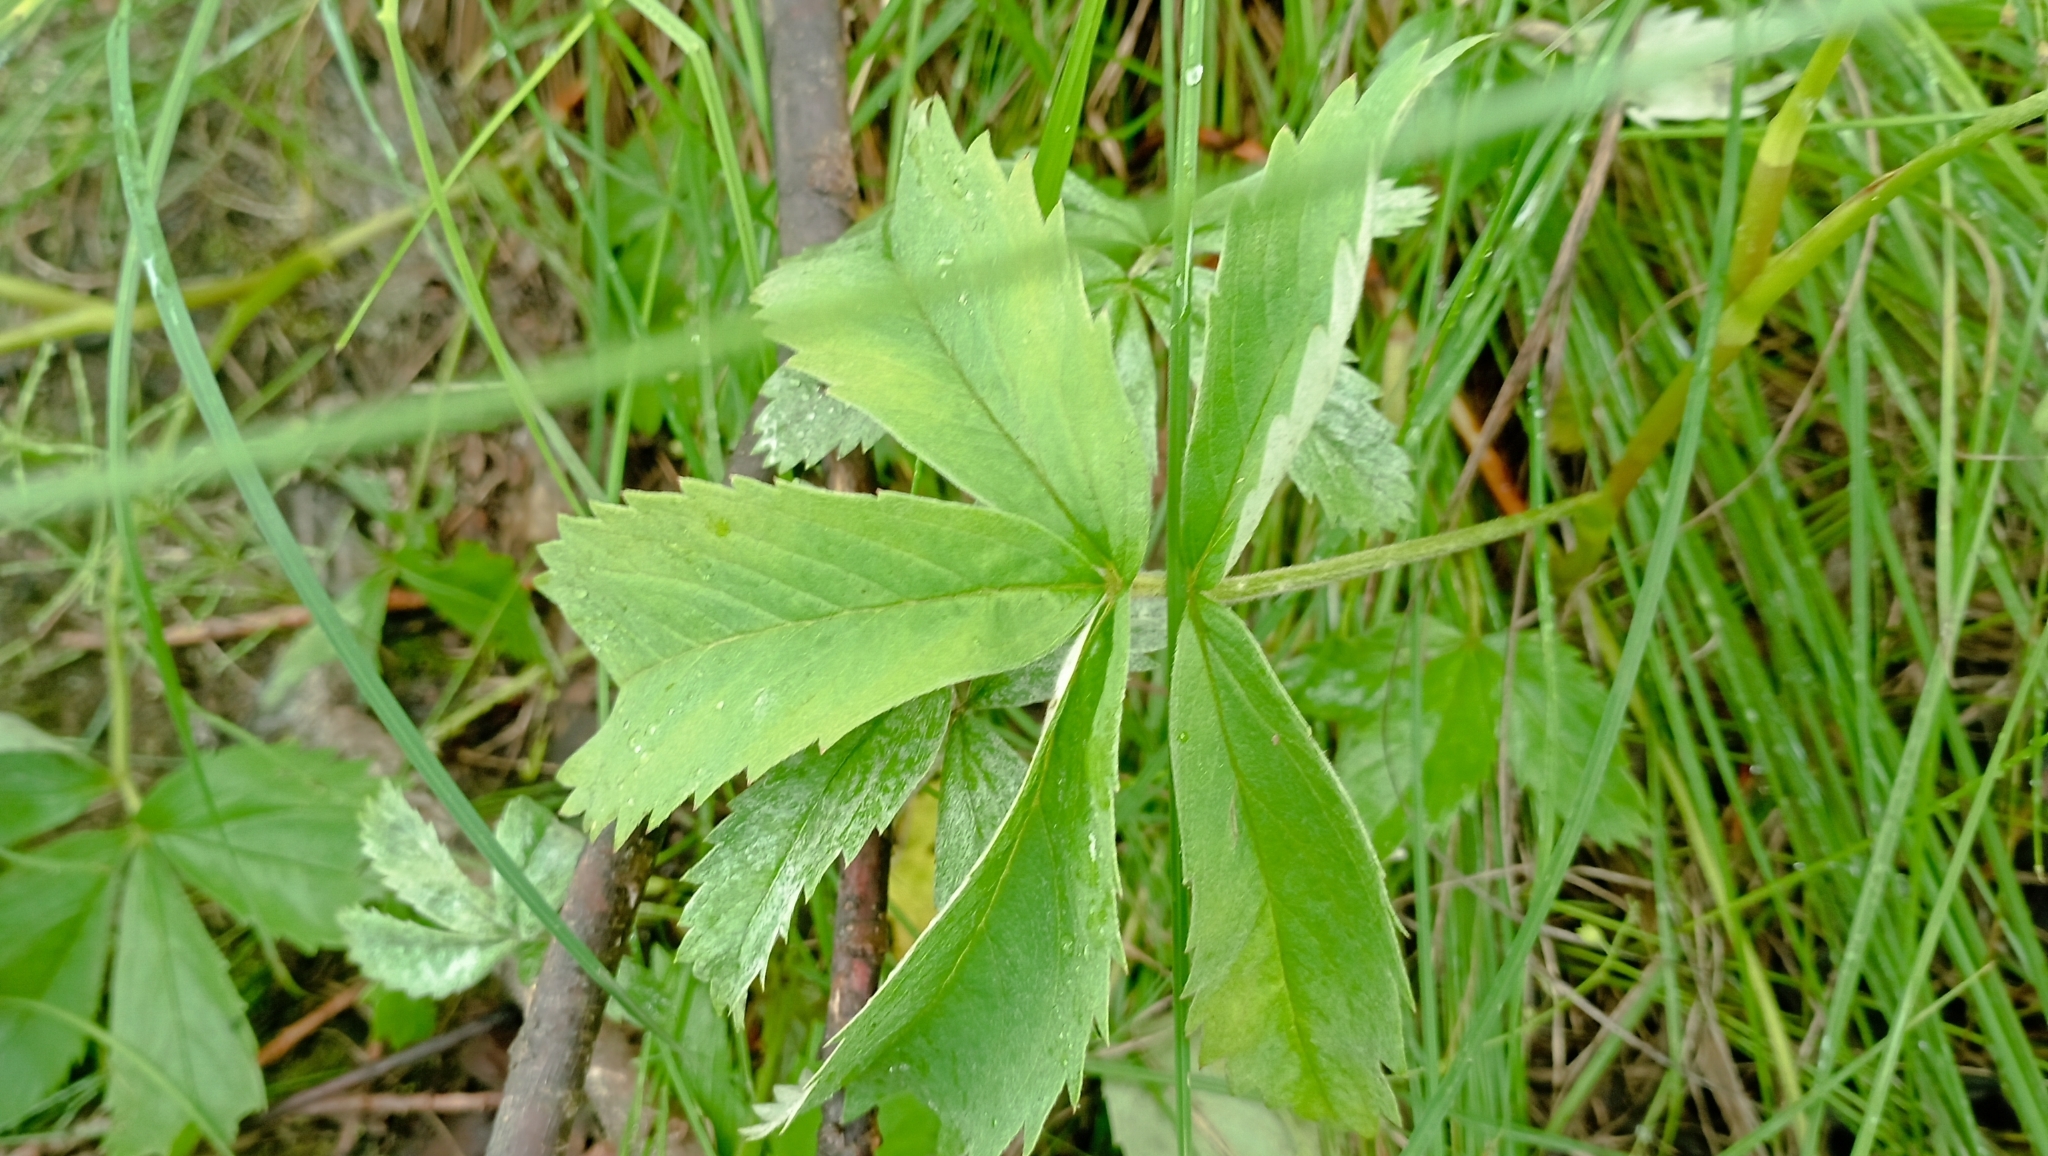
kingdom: Plantae
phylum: Tracheophyta
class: Magnoliopsida
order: Rosales
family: Rosaceae
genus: Comarum
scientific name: Comarum palustre
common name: Marsh cinquefoil
